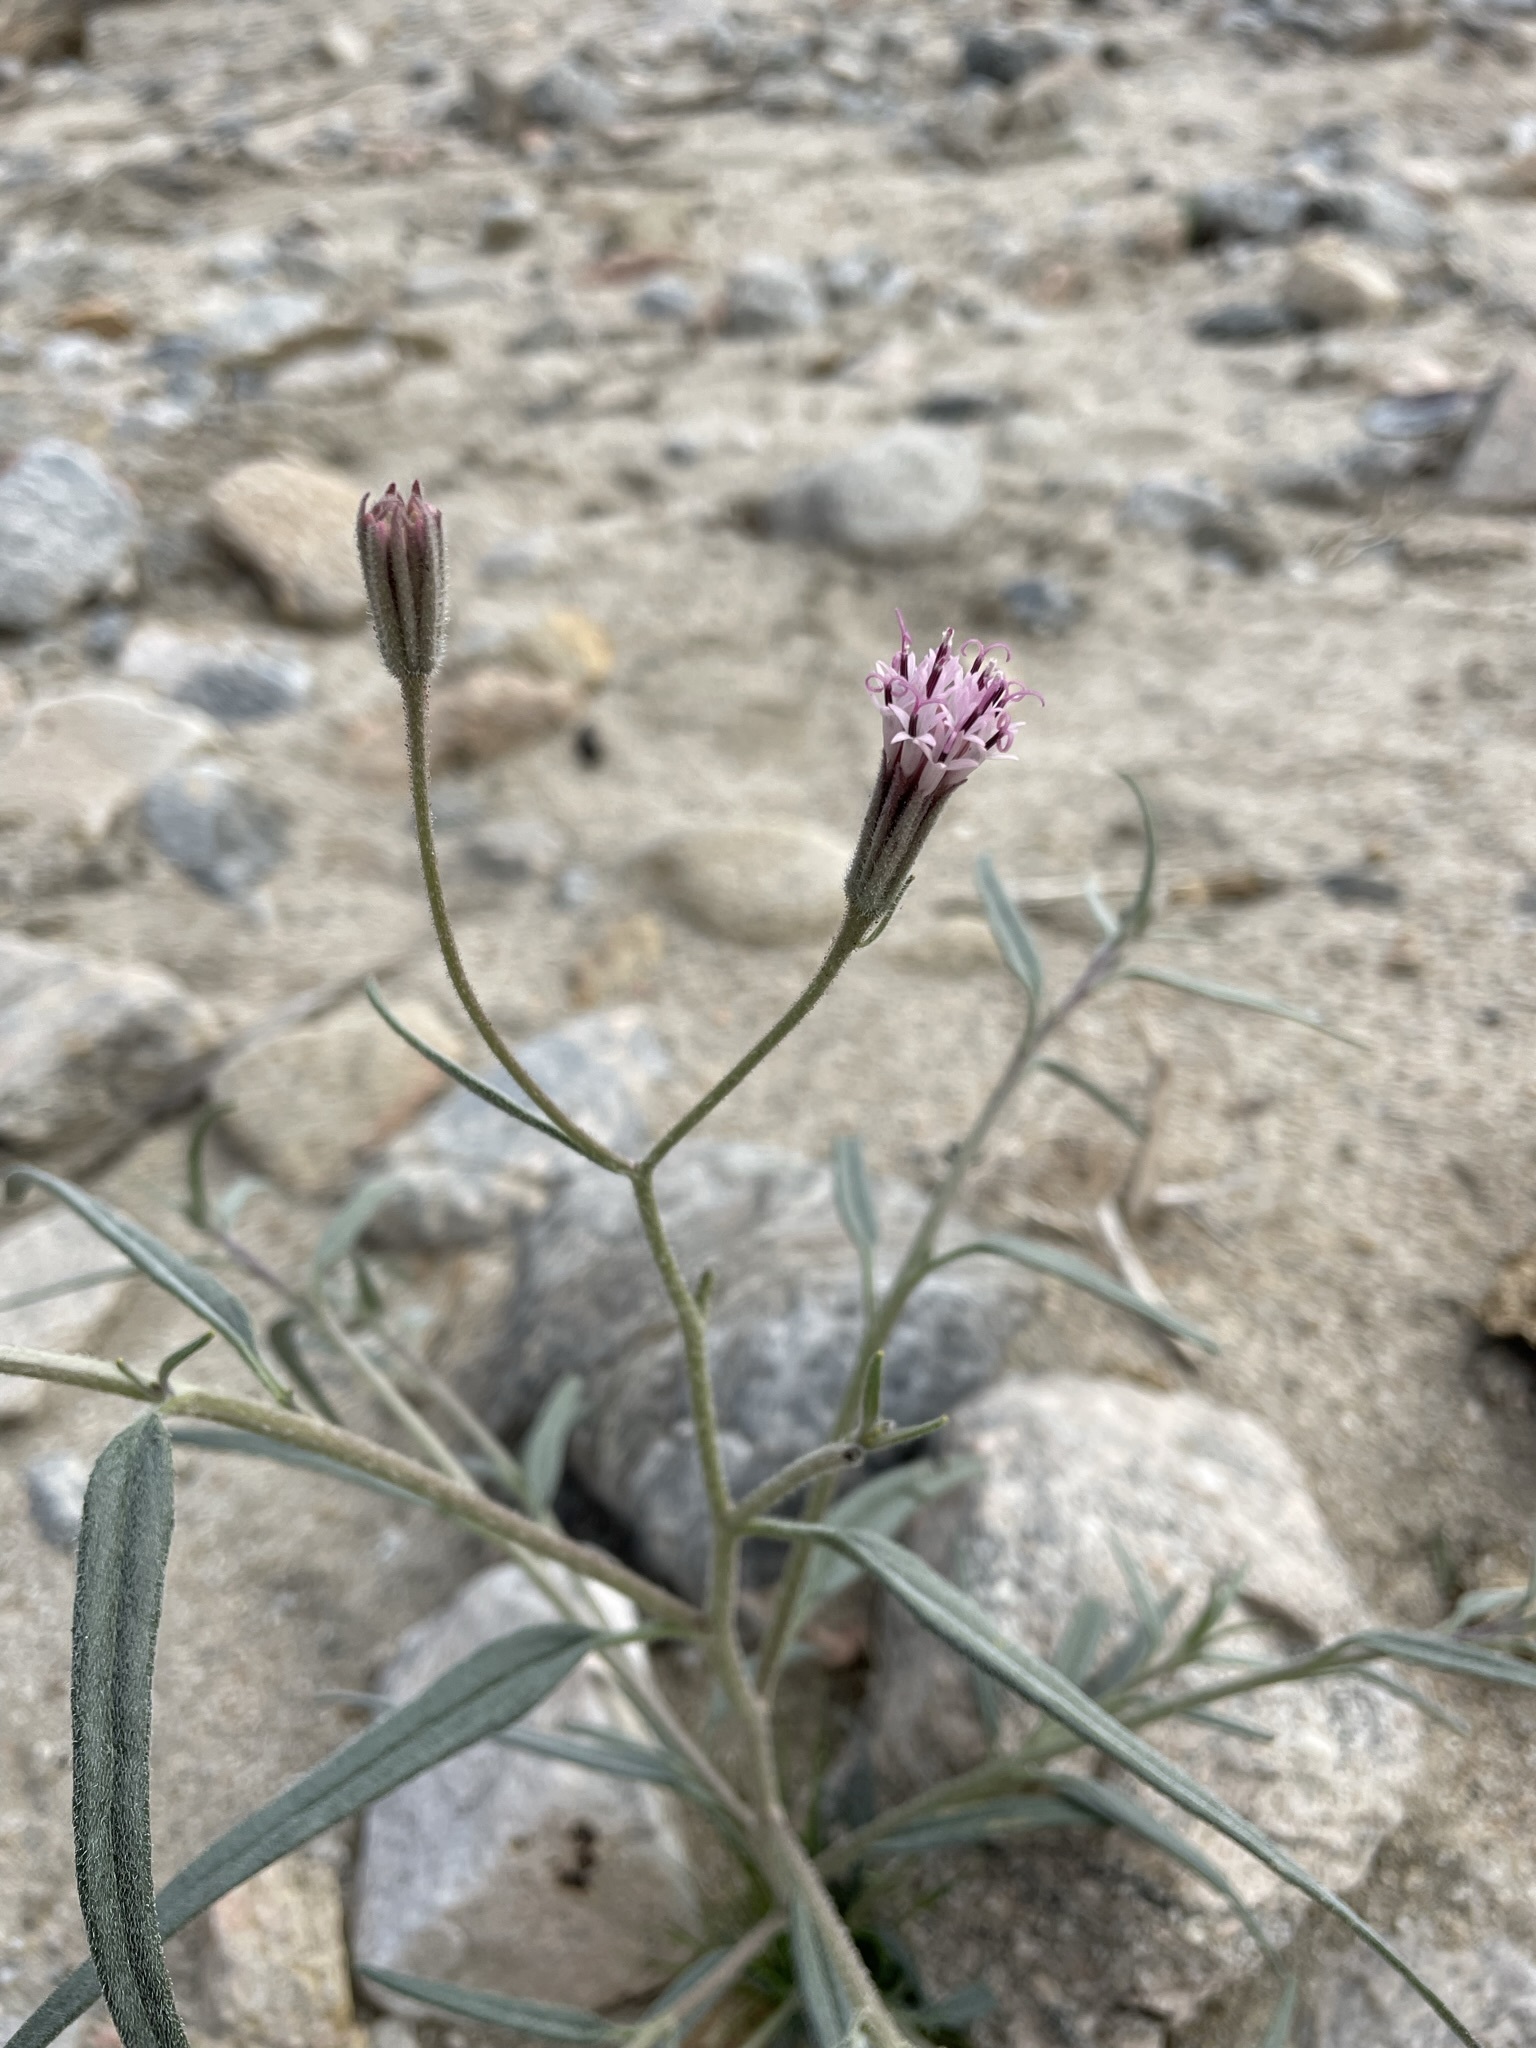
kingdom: Plantae
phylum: Tracheophyta
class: Magnoliopsida
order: Asterales
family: Asteraceae
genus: Palafoxia
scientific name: Palafoxia arida
